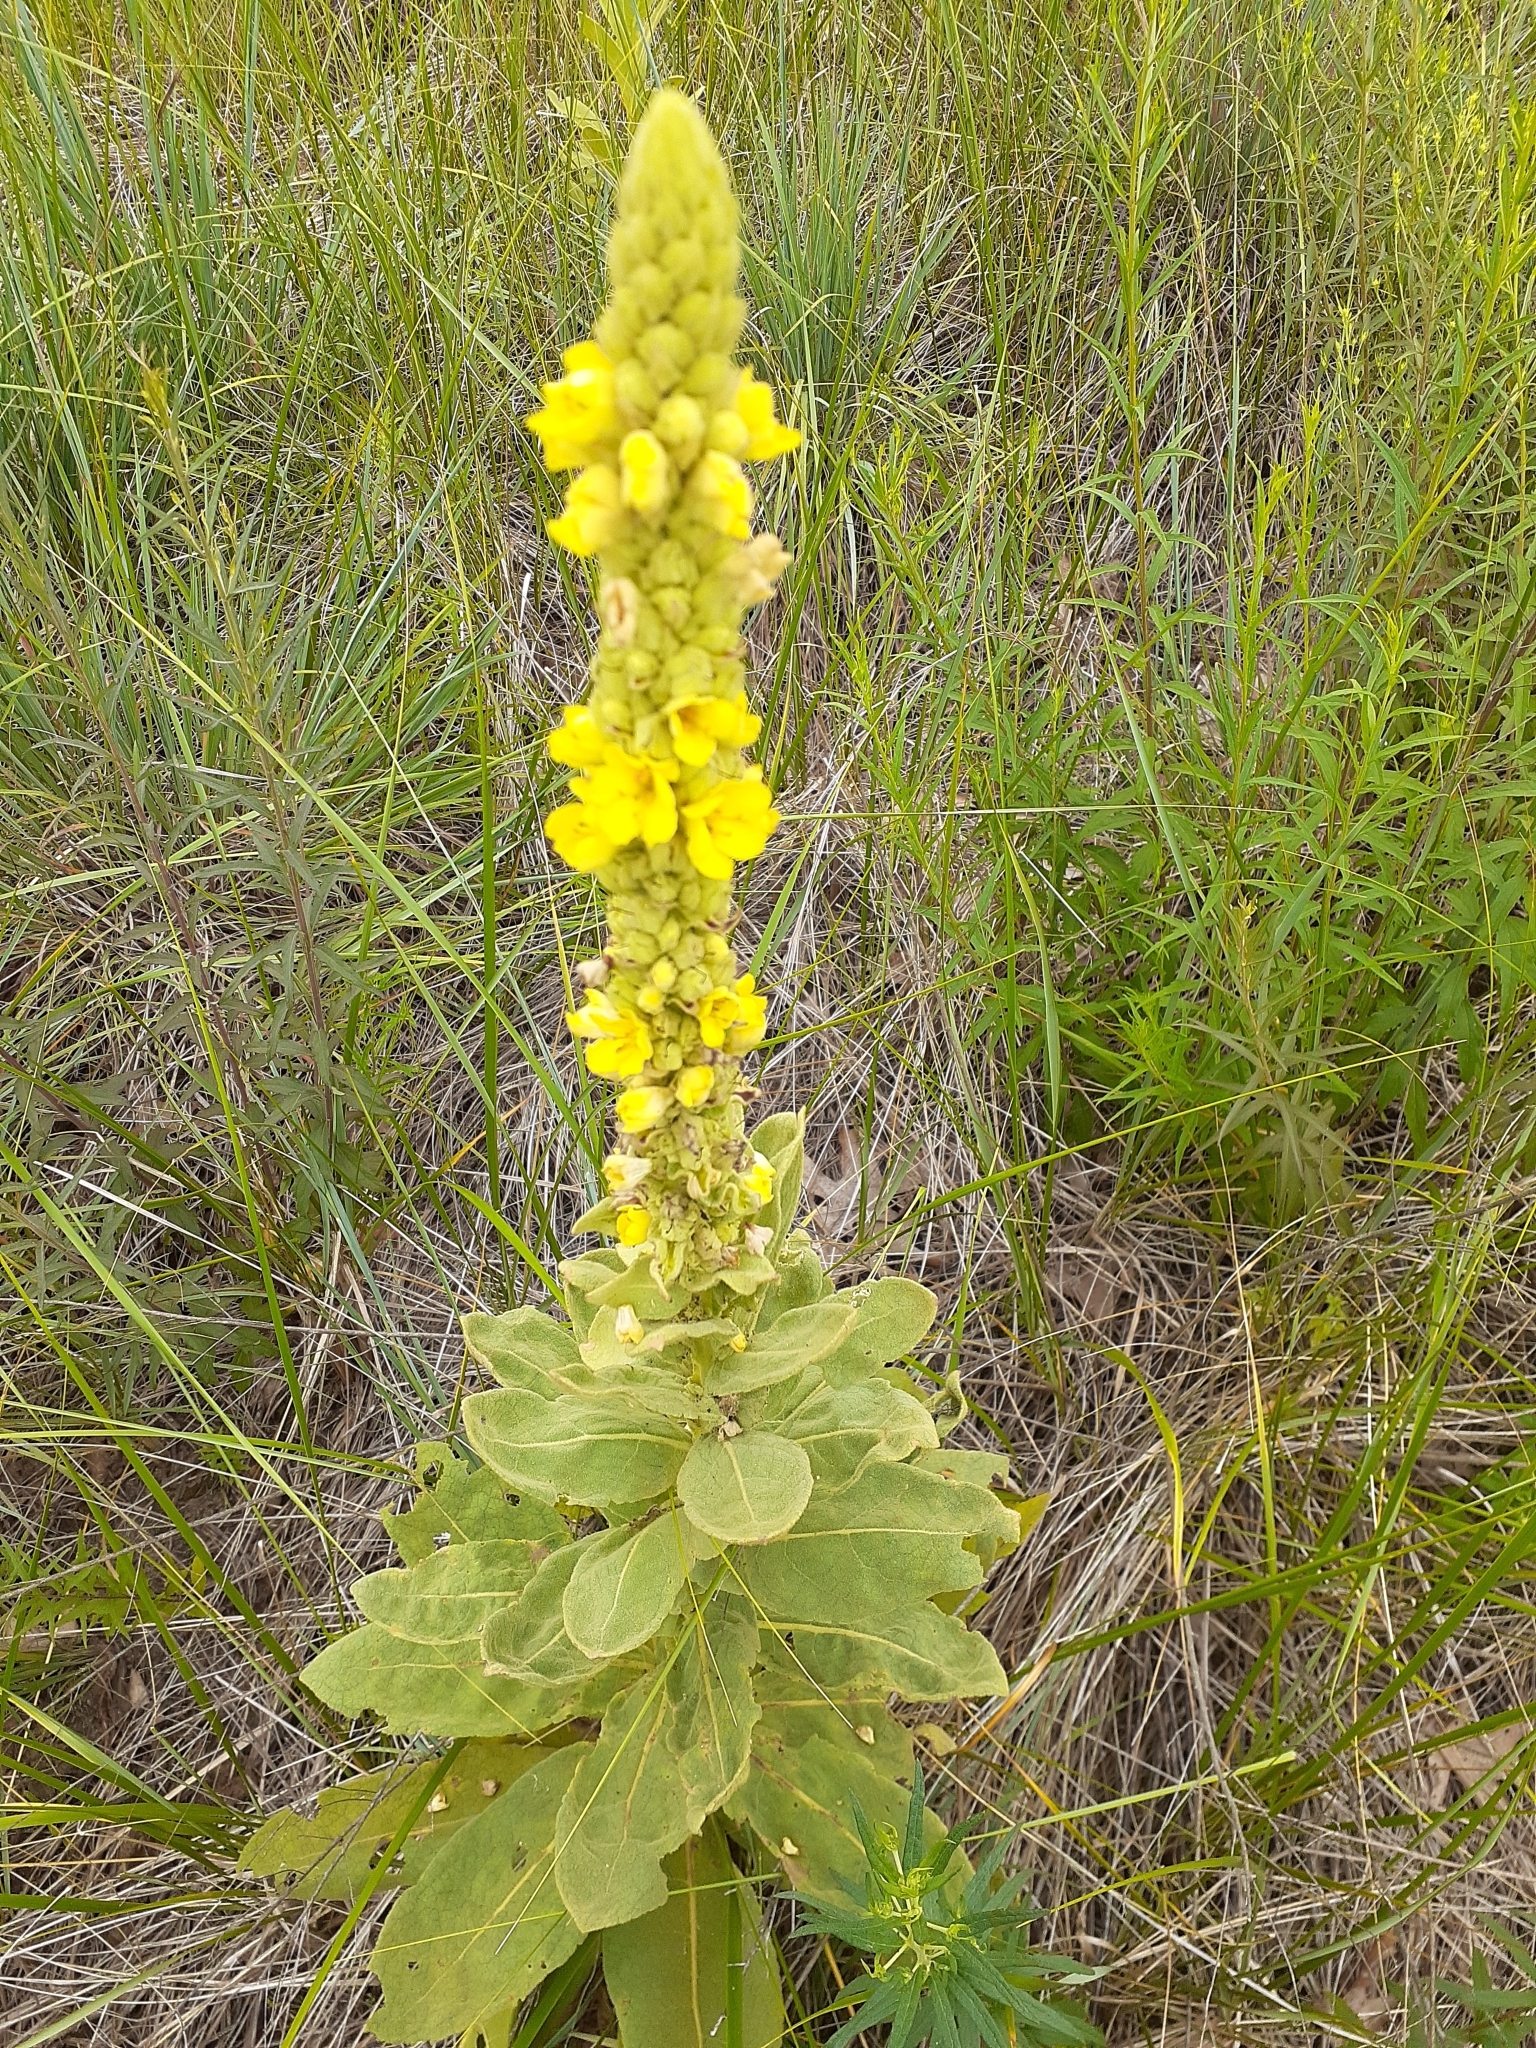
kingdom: Plantae
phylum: Tracheophyta
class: Magnoliopsida
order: Lamiales
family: Scrophulariaceae
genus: Verbascum
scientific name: Verbascum thapsus
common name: Common mullein
